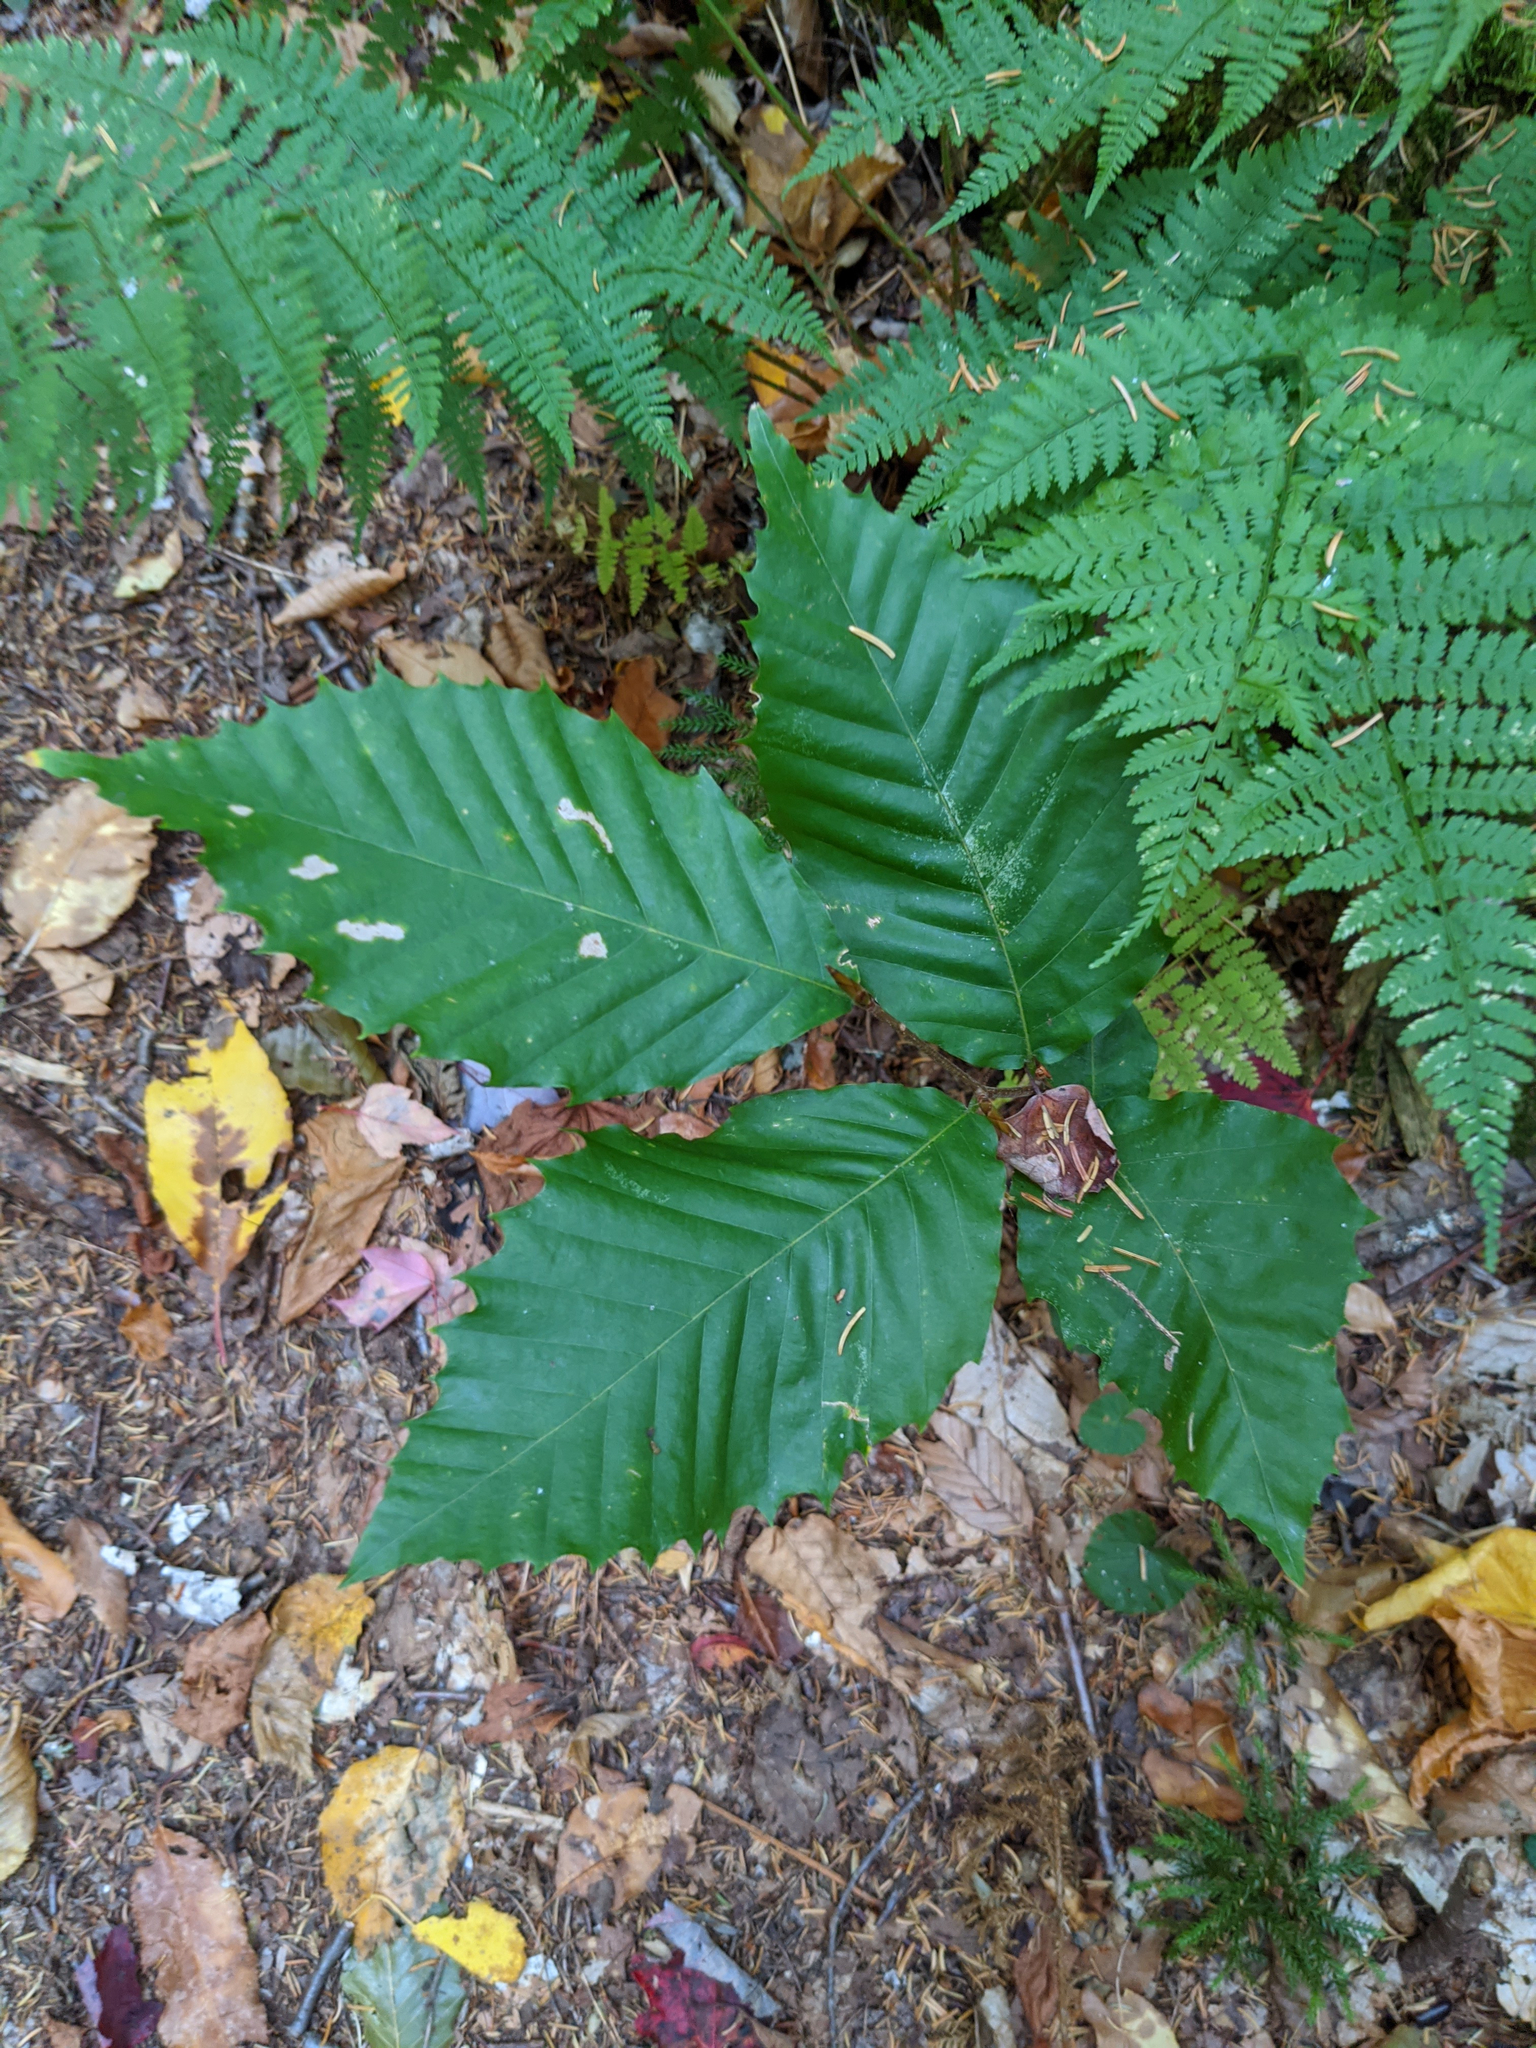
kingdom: Plantae
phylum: Tracheophyta
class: Magnoliopsida
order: Fagales
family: Fagaceae
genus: Fagus
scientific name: Fagus grandifolia
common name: American beech
